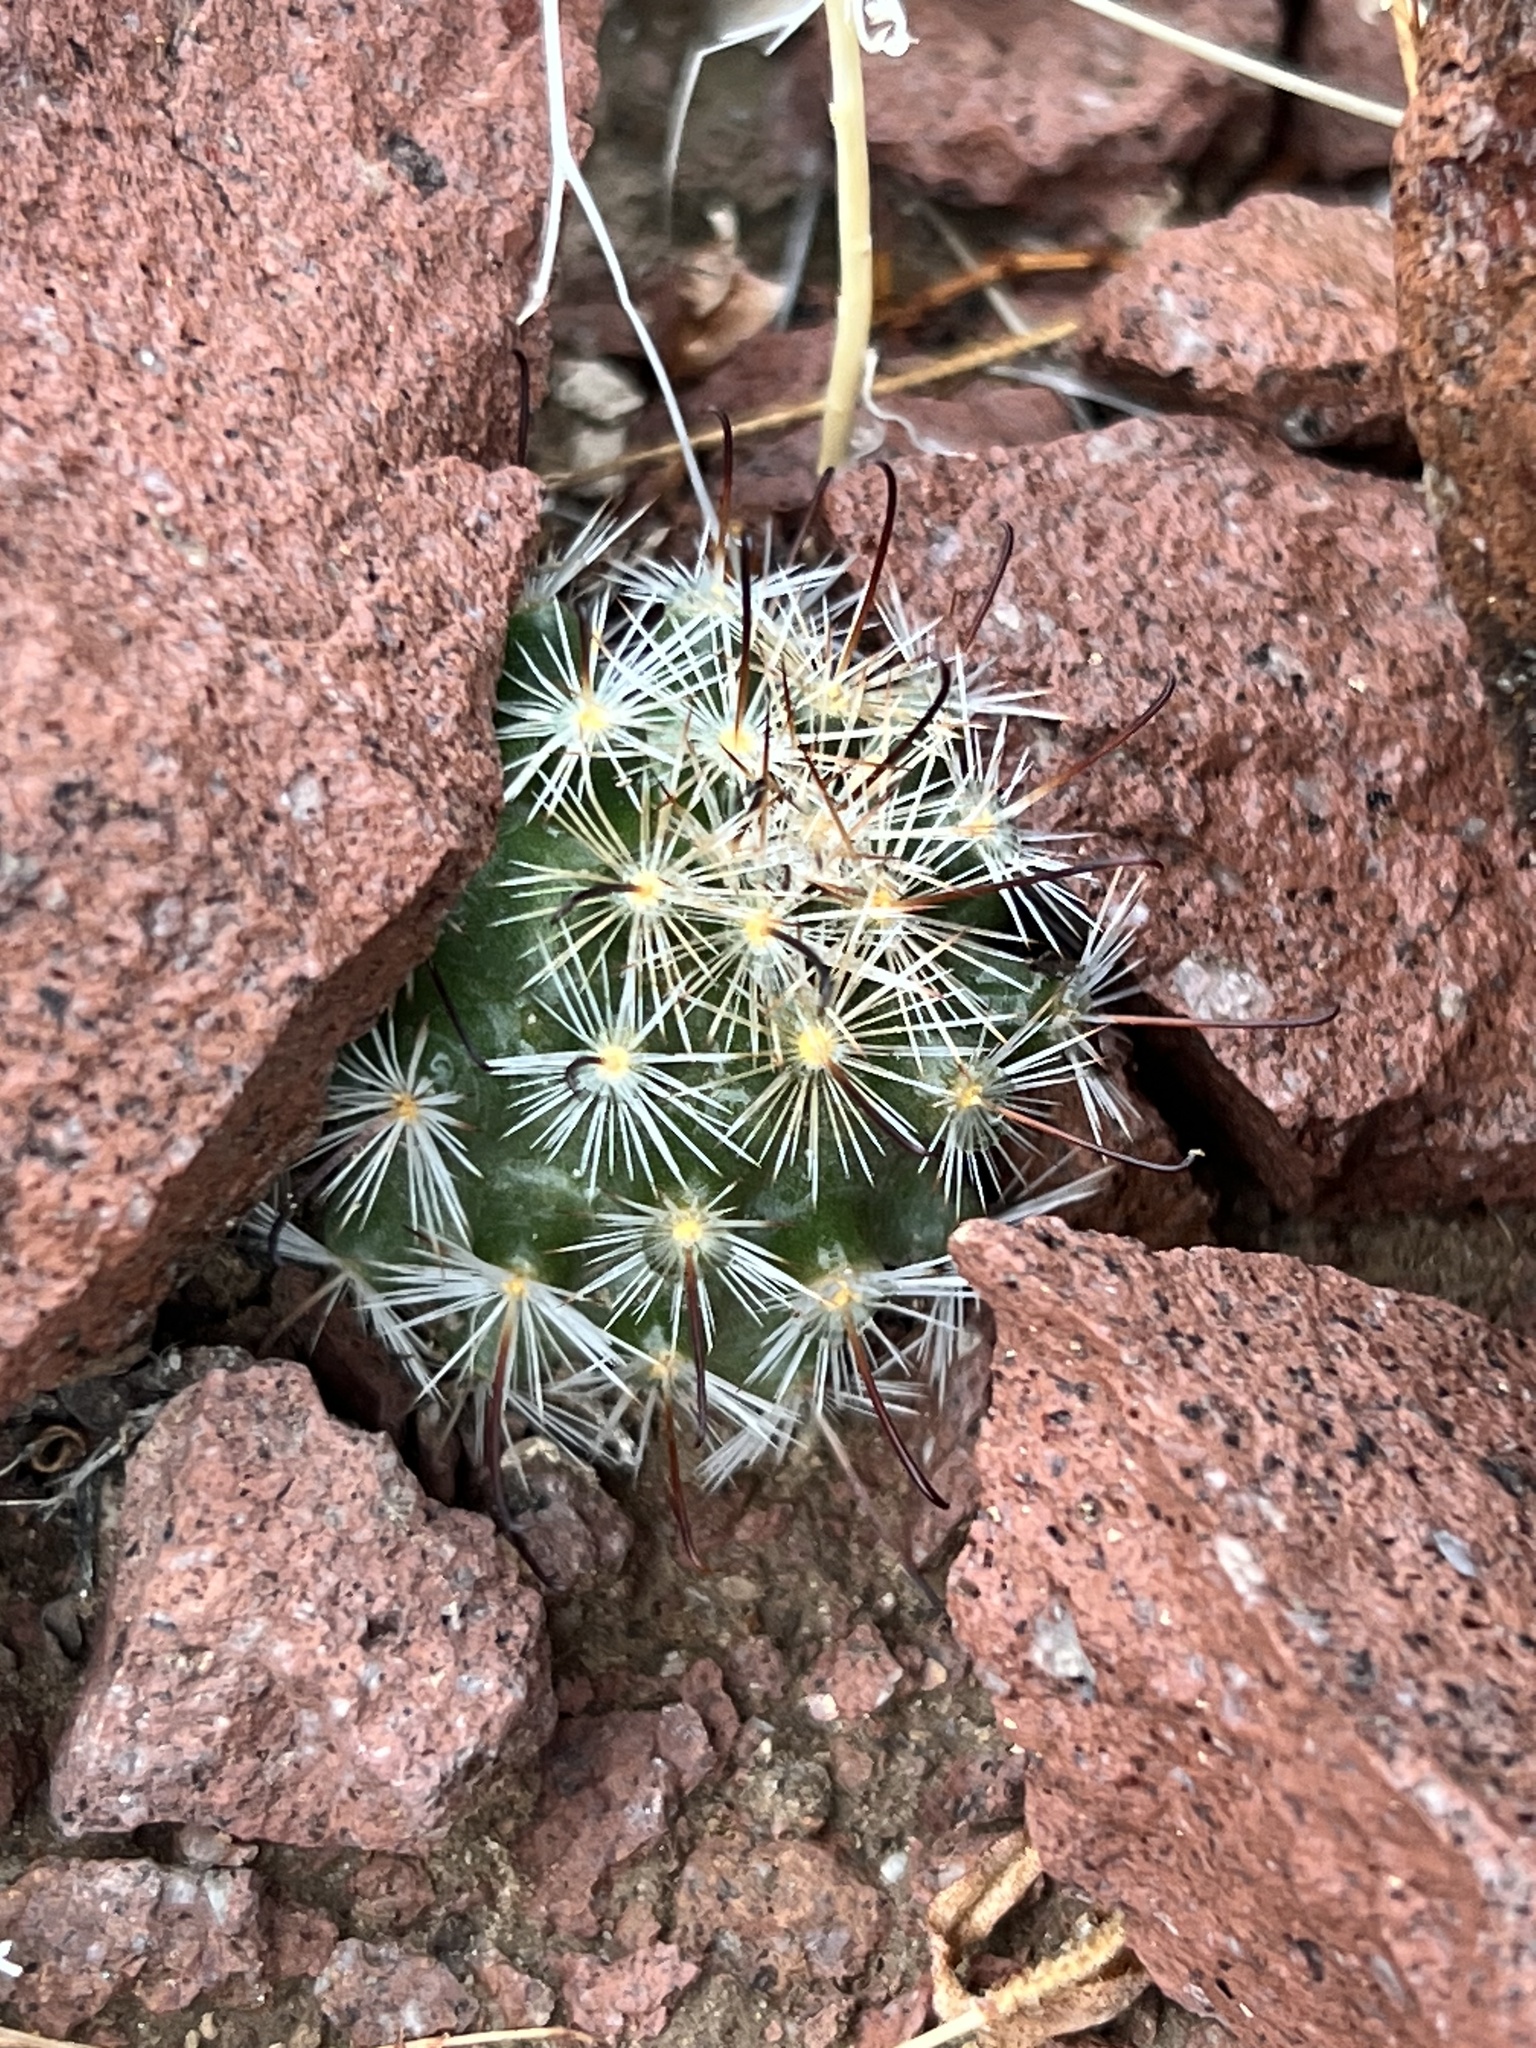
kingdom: Plantae
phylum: Tracheophyta
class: Magnoliopsida
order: Caryophyllales
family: Cactaceae
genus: Cochemiea
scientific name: Cochemiea tetrancistra
